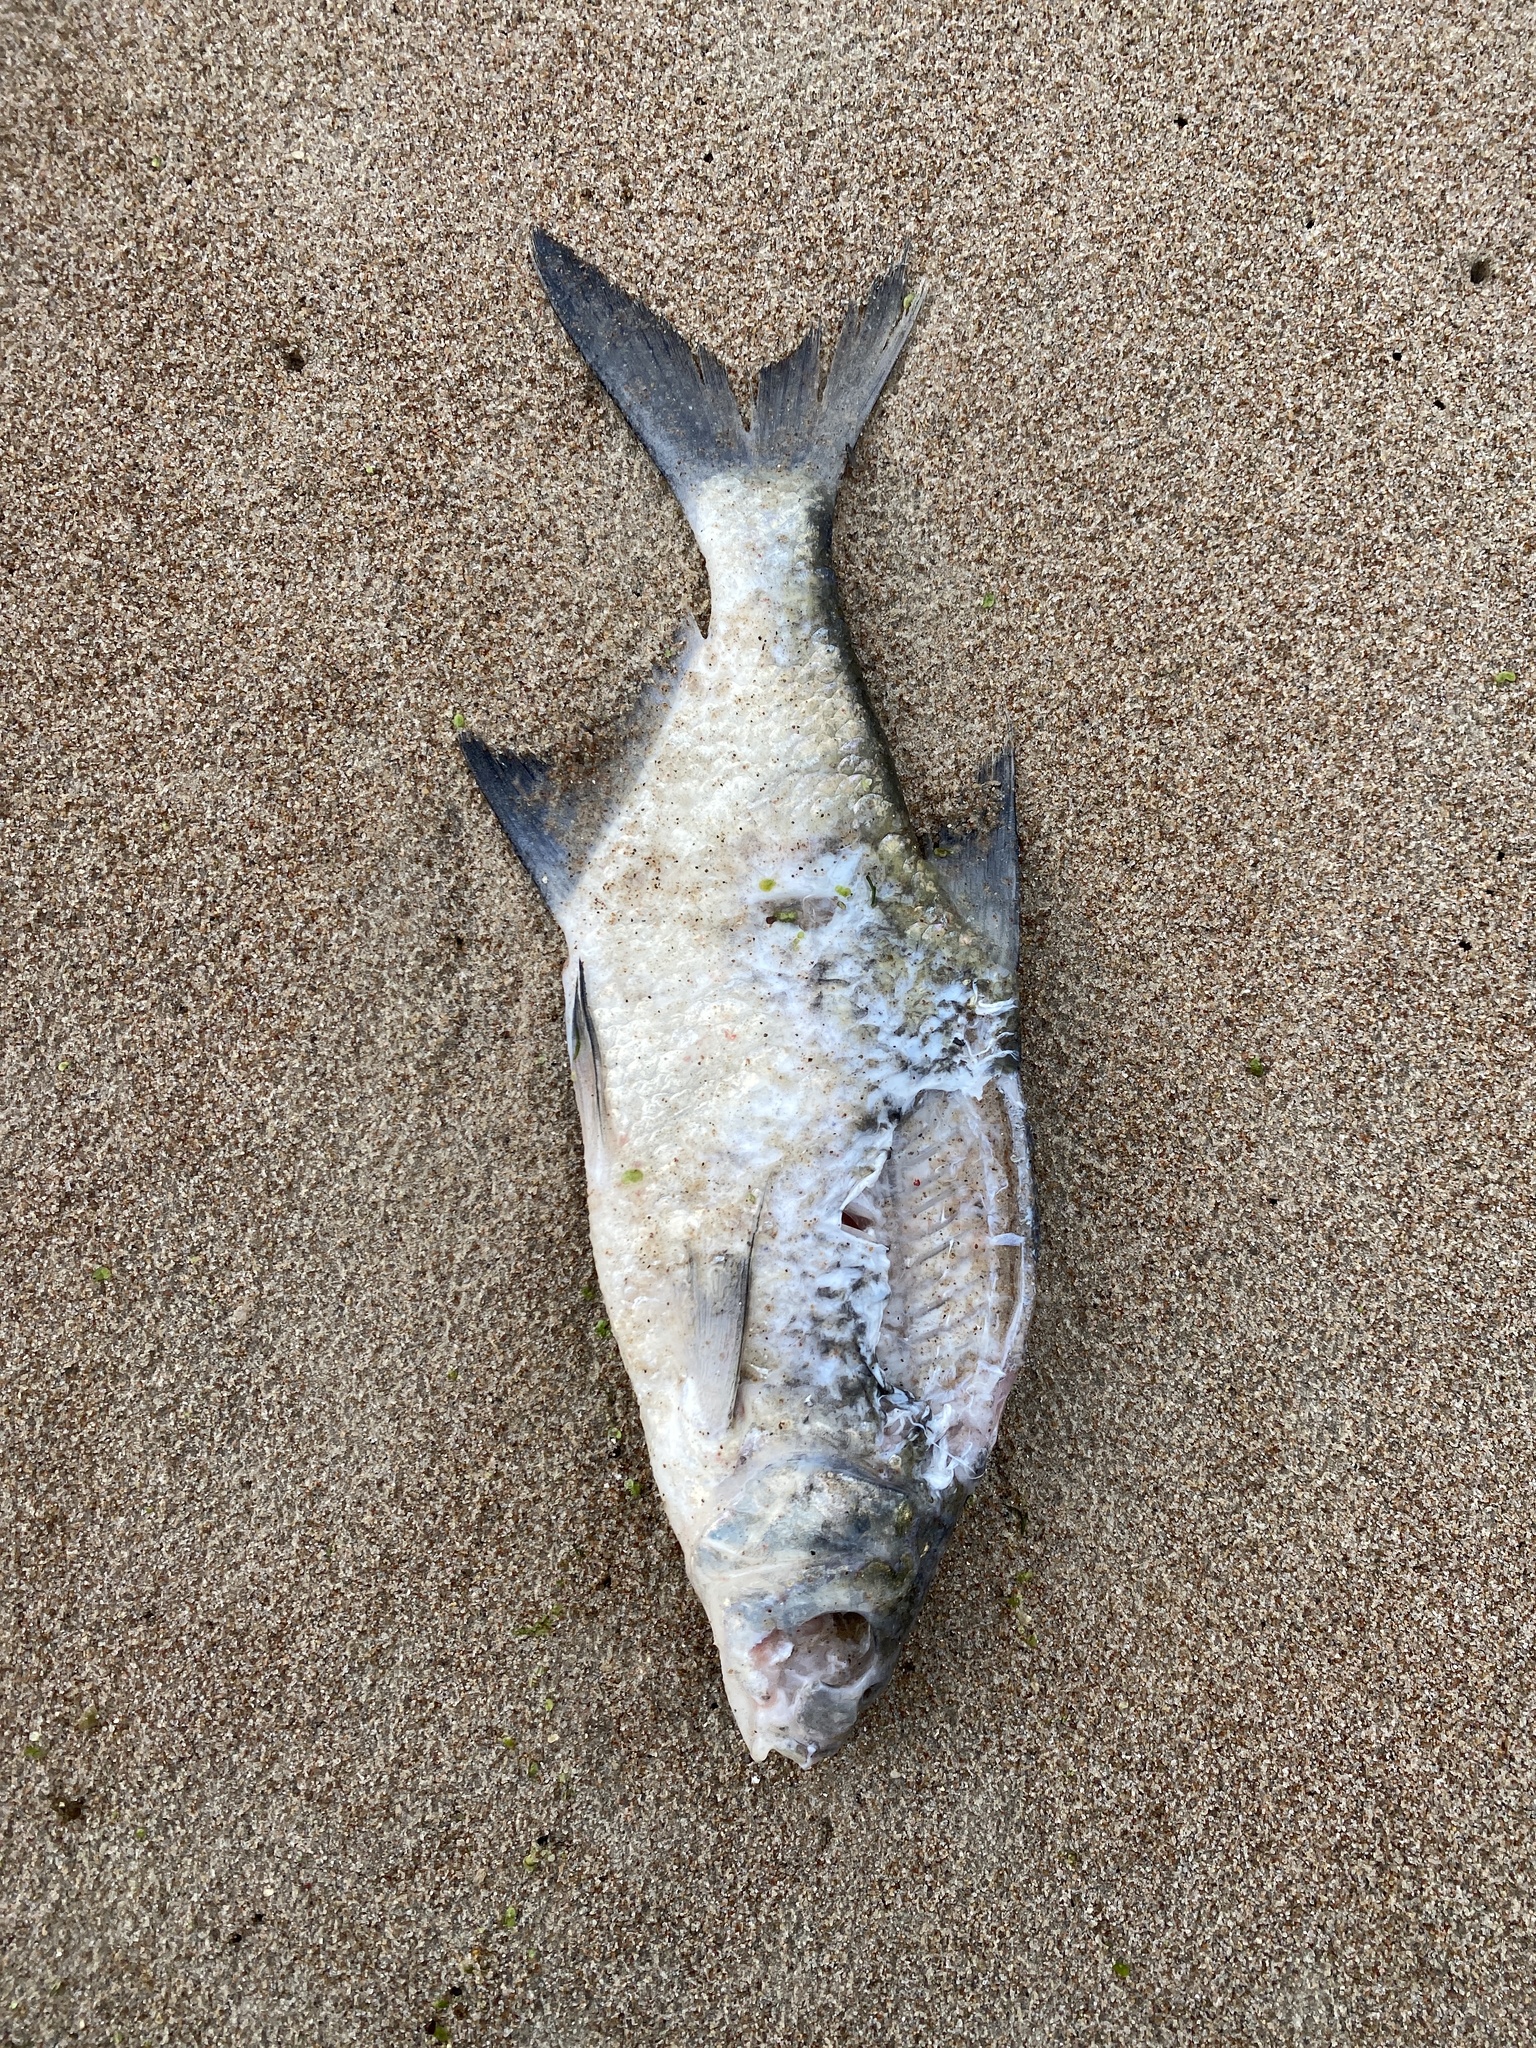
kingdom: Animalia
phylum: Chordata
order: Cypriniformes
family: Cyprinidae
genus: Abramis
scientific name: Abramis brama
